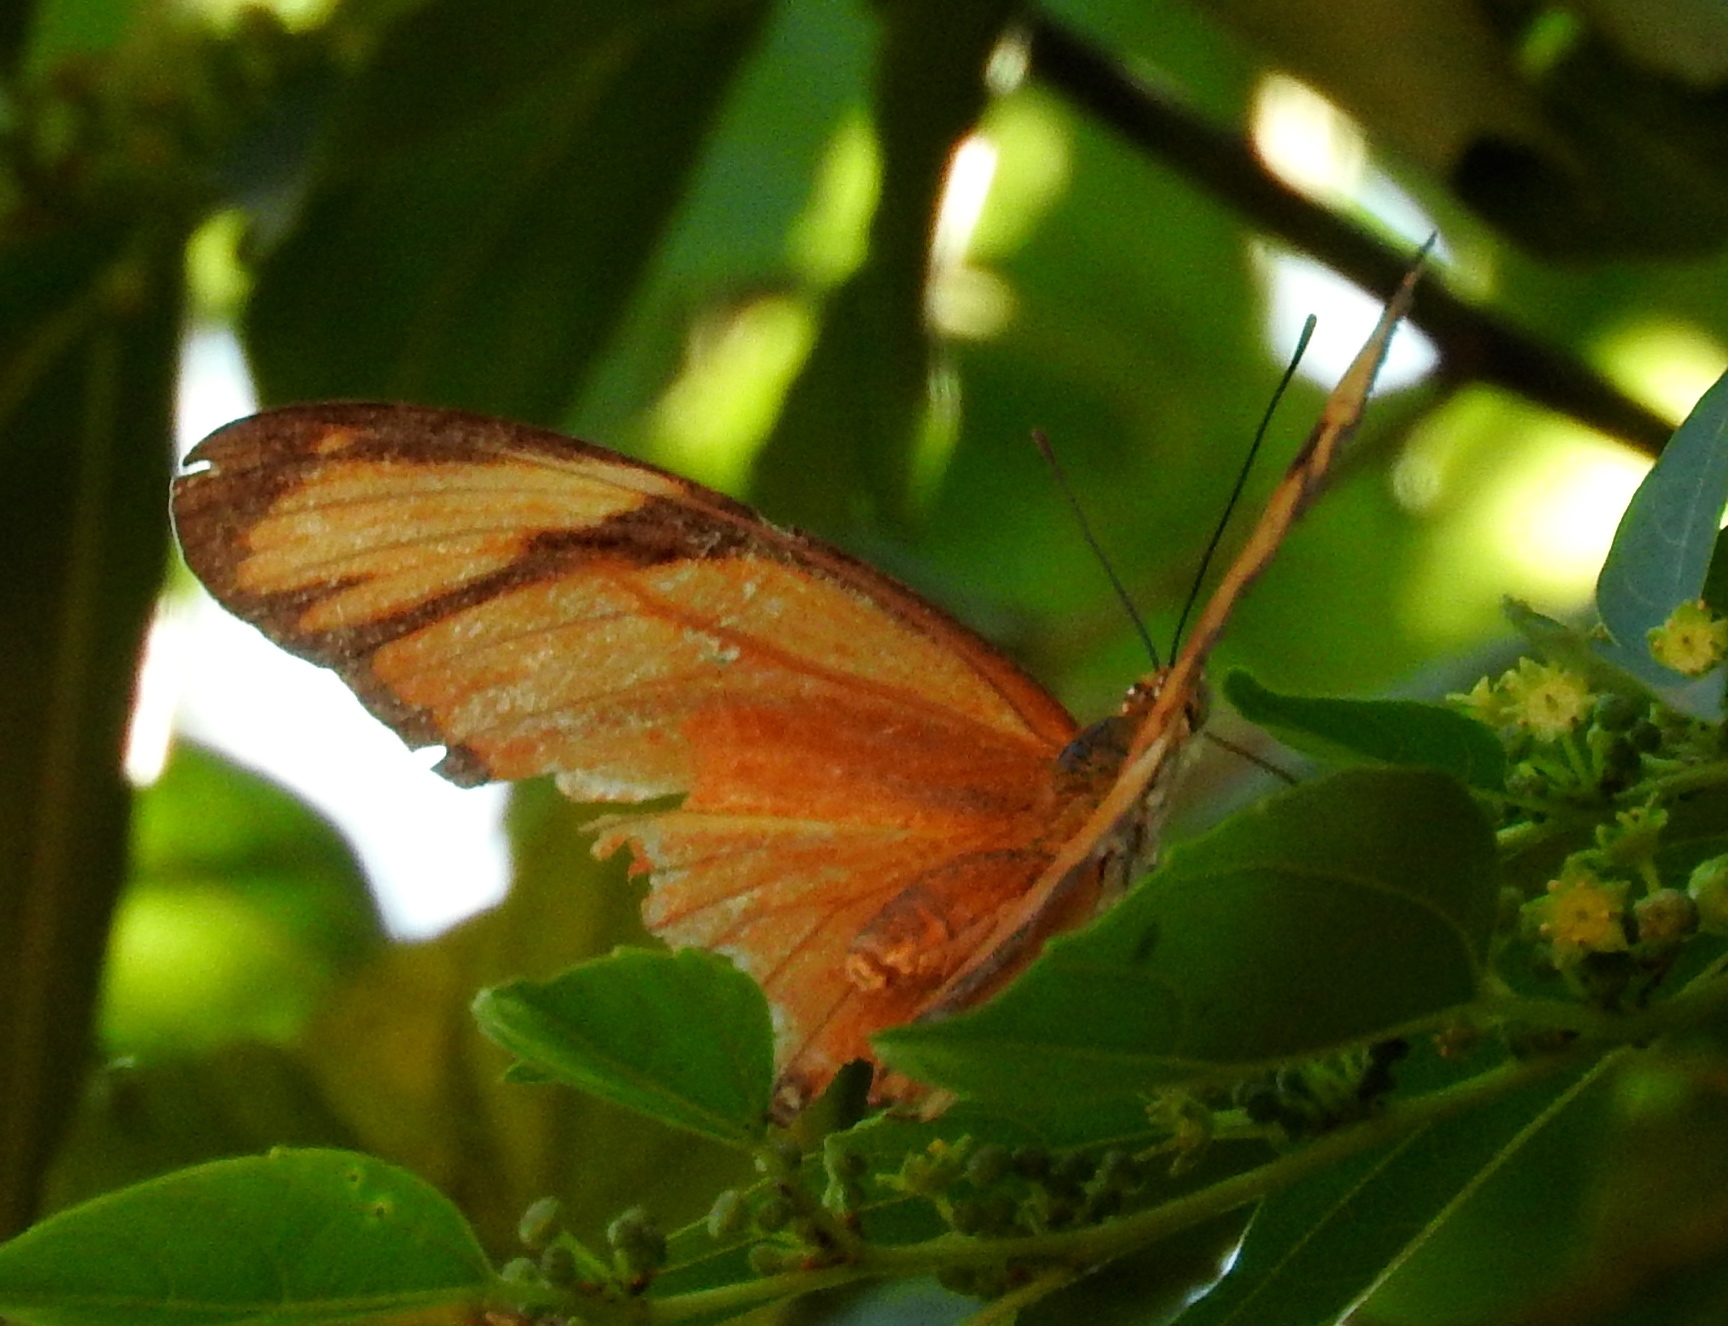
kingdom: Animalia
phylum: Arthropoda
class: Insecta
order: Lepidoptera
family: Nymphalidae
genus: Dryas
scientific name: Dryas iulia
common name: Flambeau
